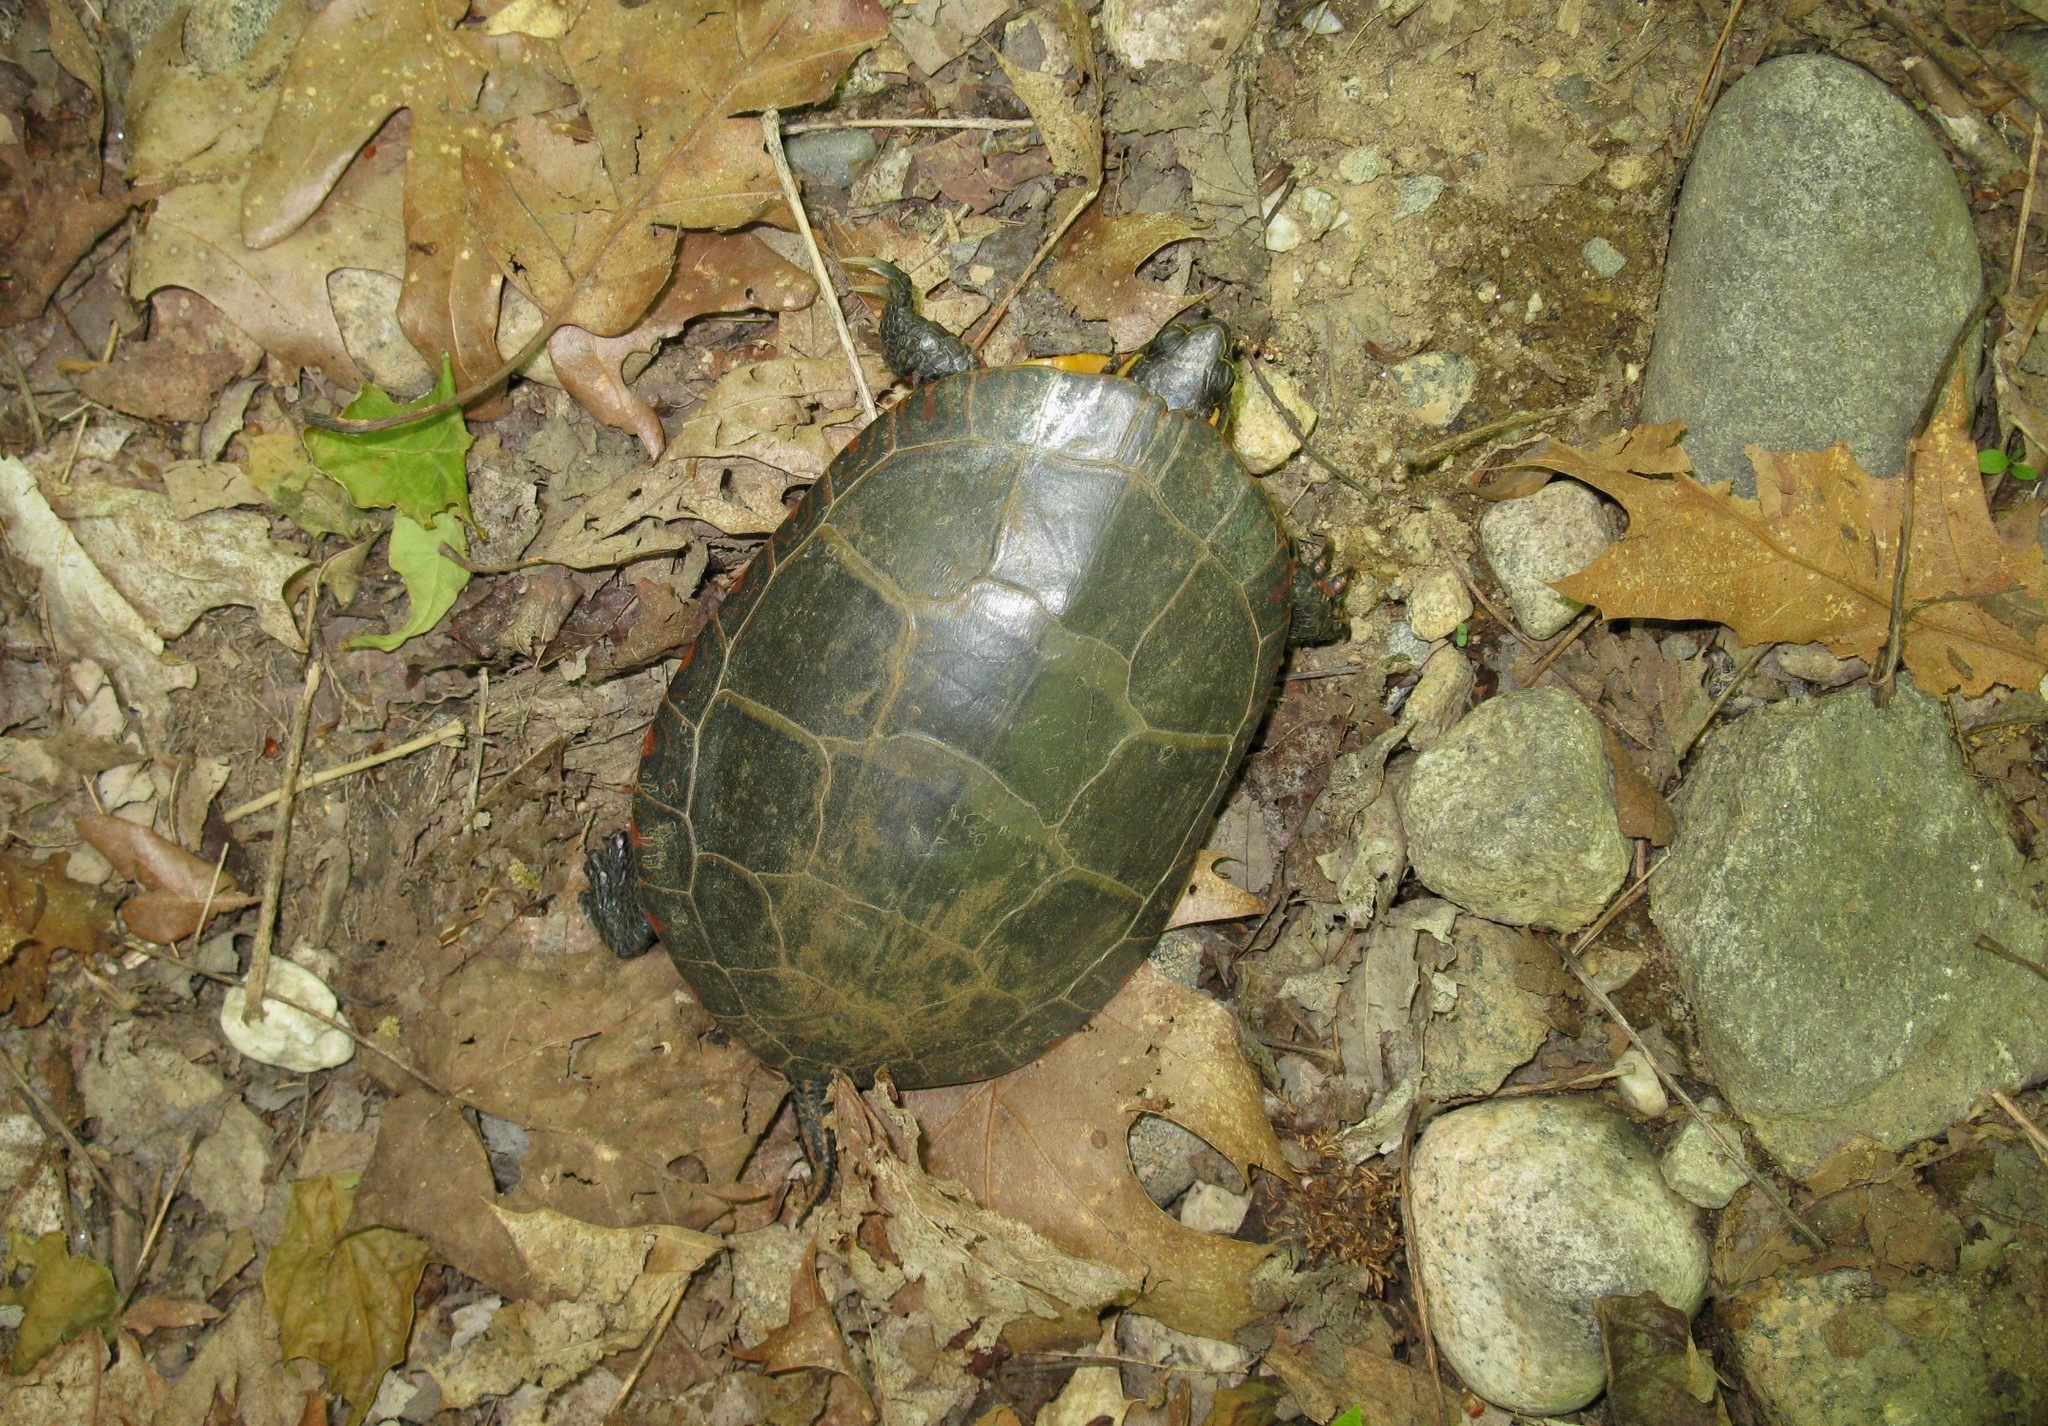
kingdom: Animalia
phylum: Chordata
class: Testudines
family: Emydidae
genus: Chrysemys
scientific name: Chrysemys picta
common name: Painted turtle
